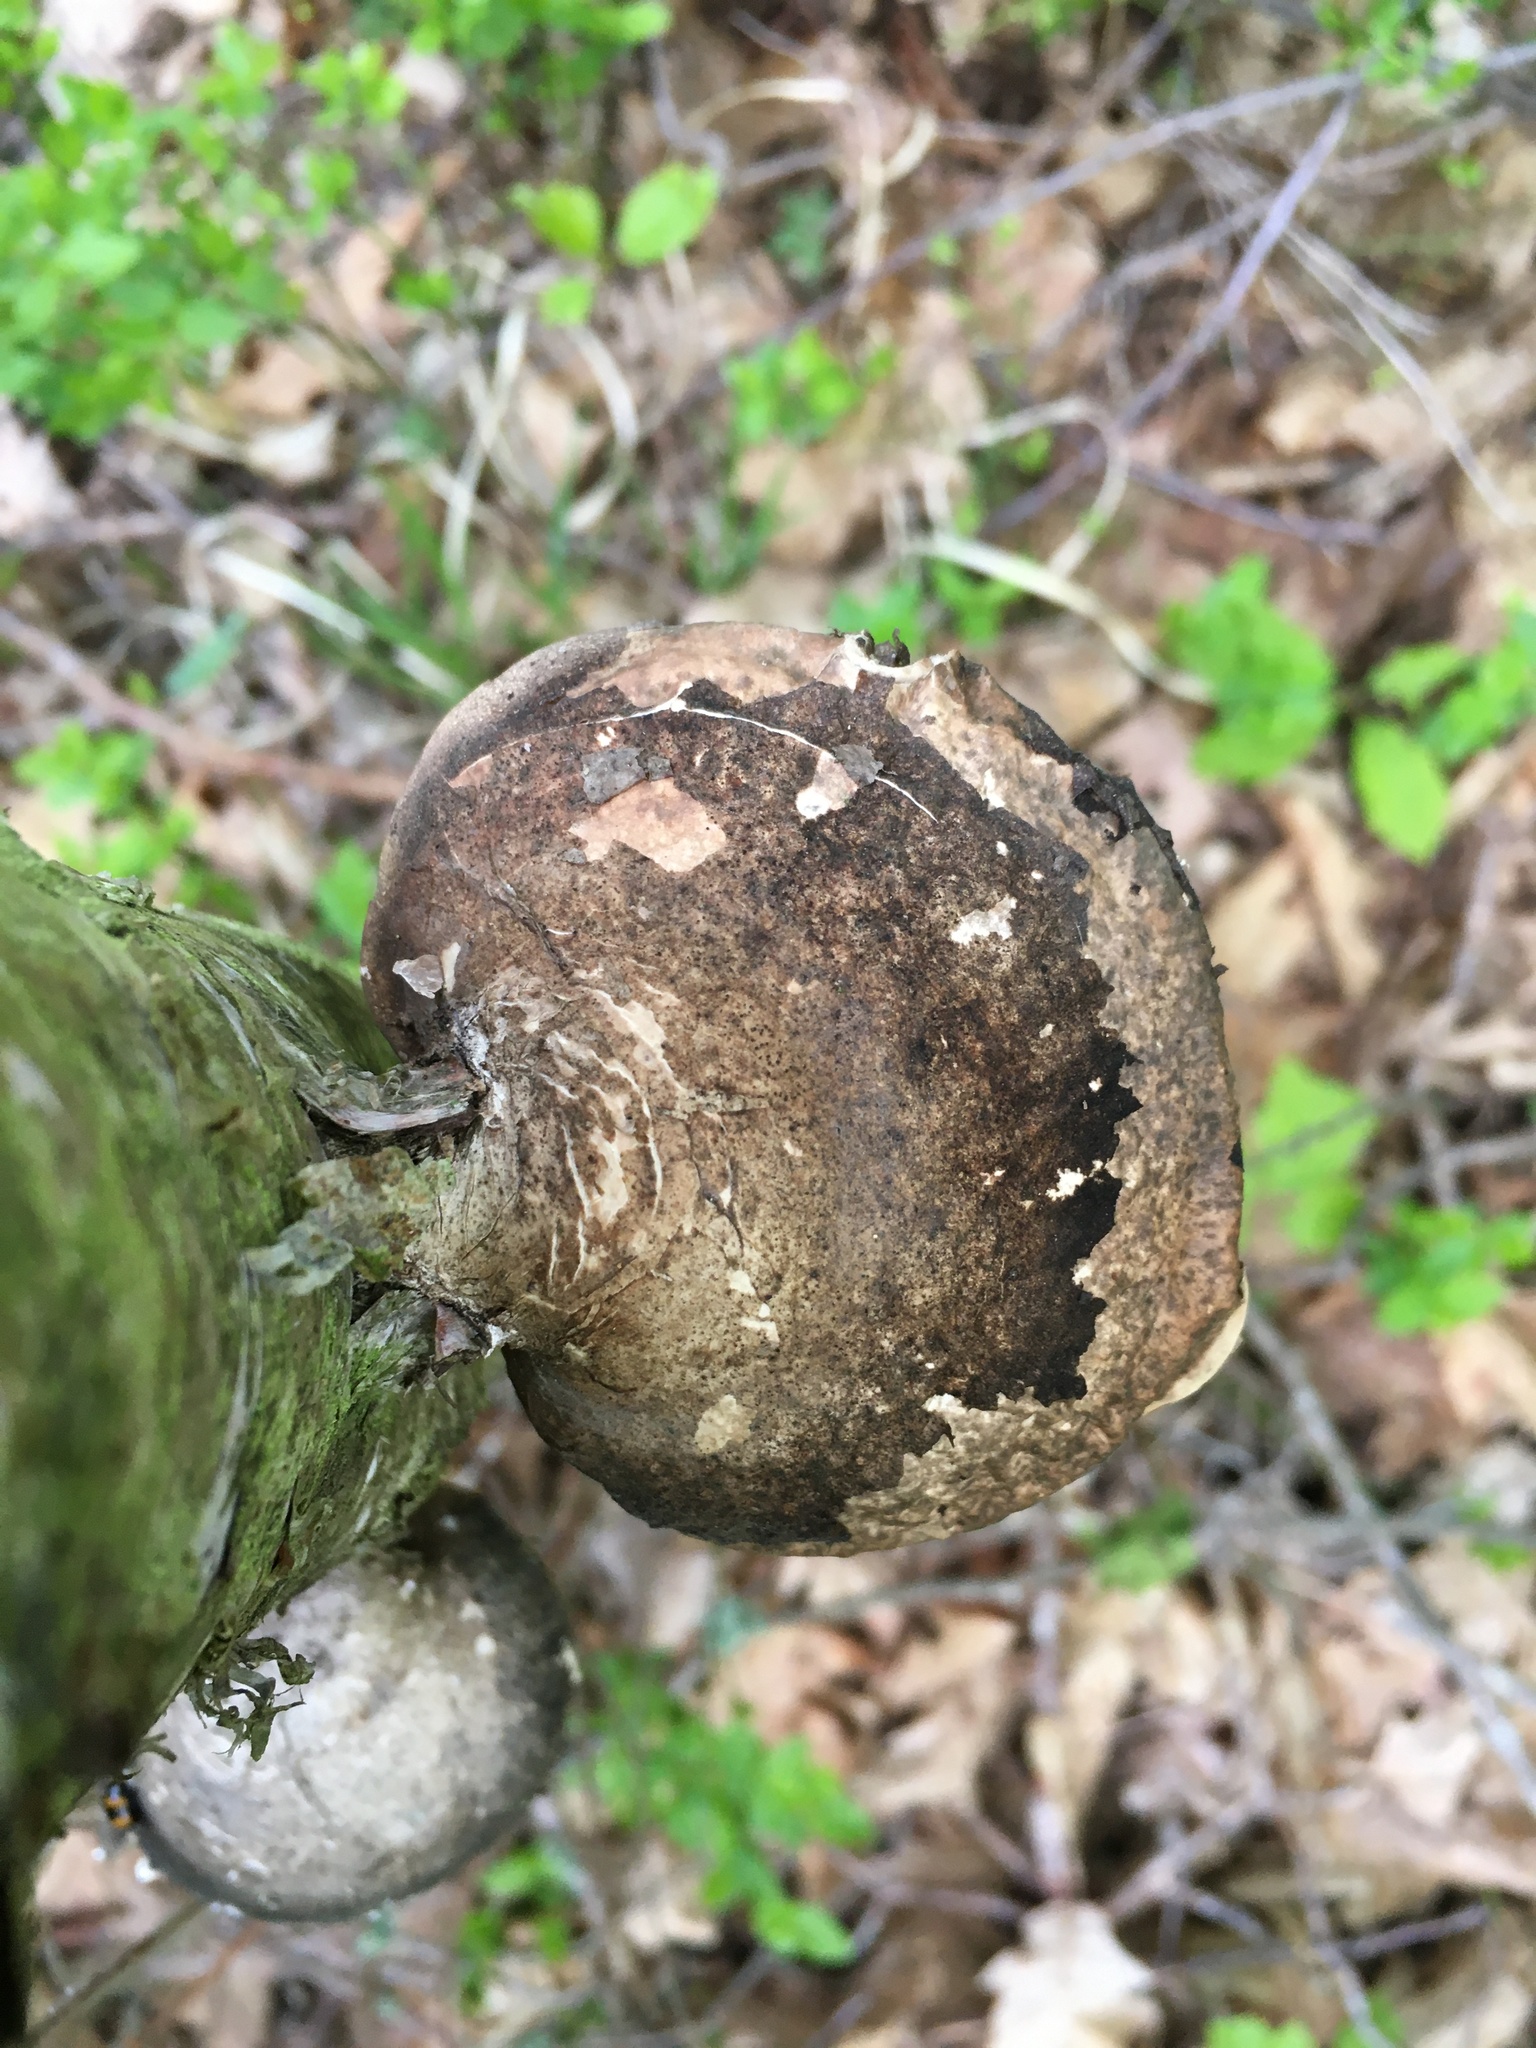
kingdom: Fungi
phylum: Basidiomycota
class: Agaricomycetes
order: Polyporales
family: Fomitopsidaceae
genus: Fomitopsis
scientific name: Fomitopsis betulina
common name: Birch polypore
